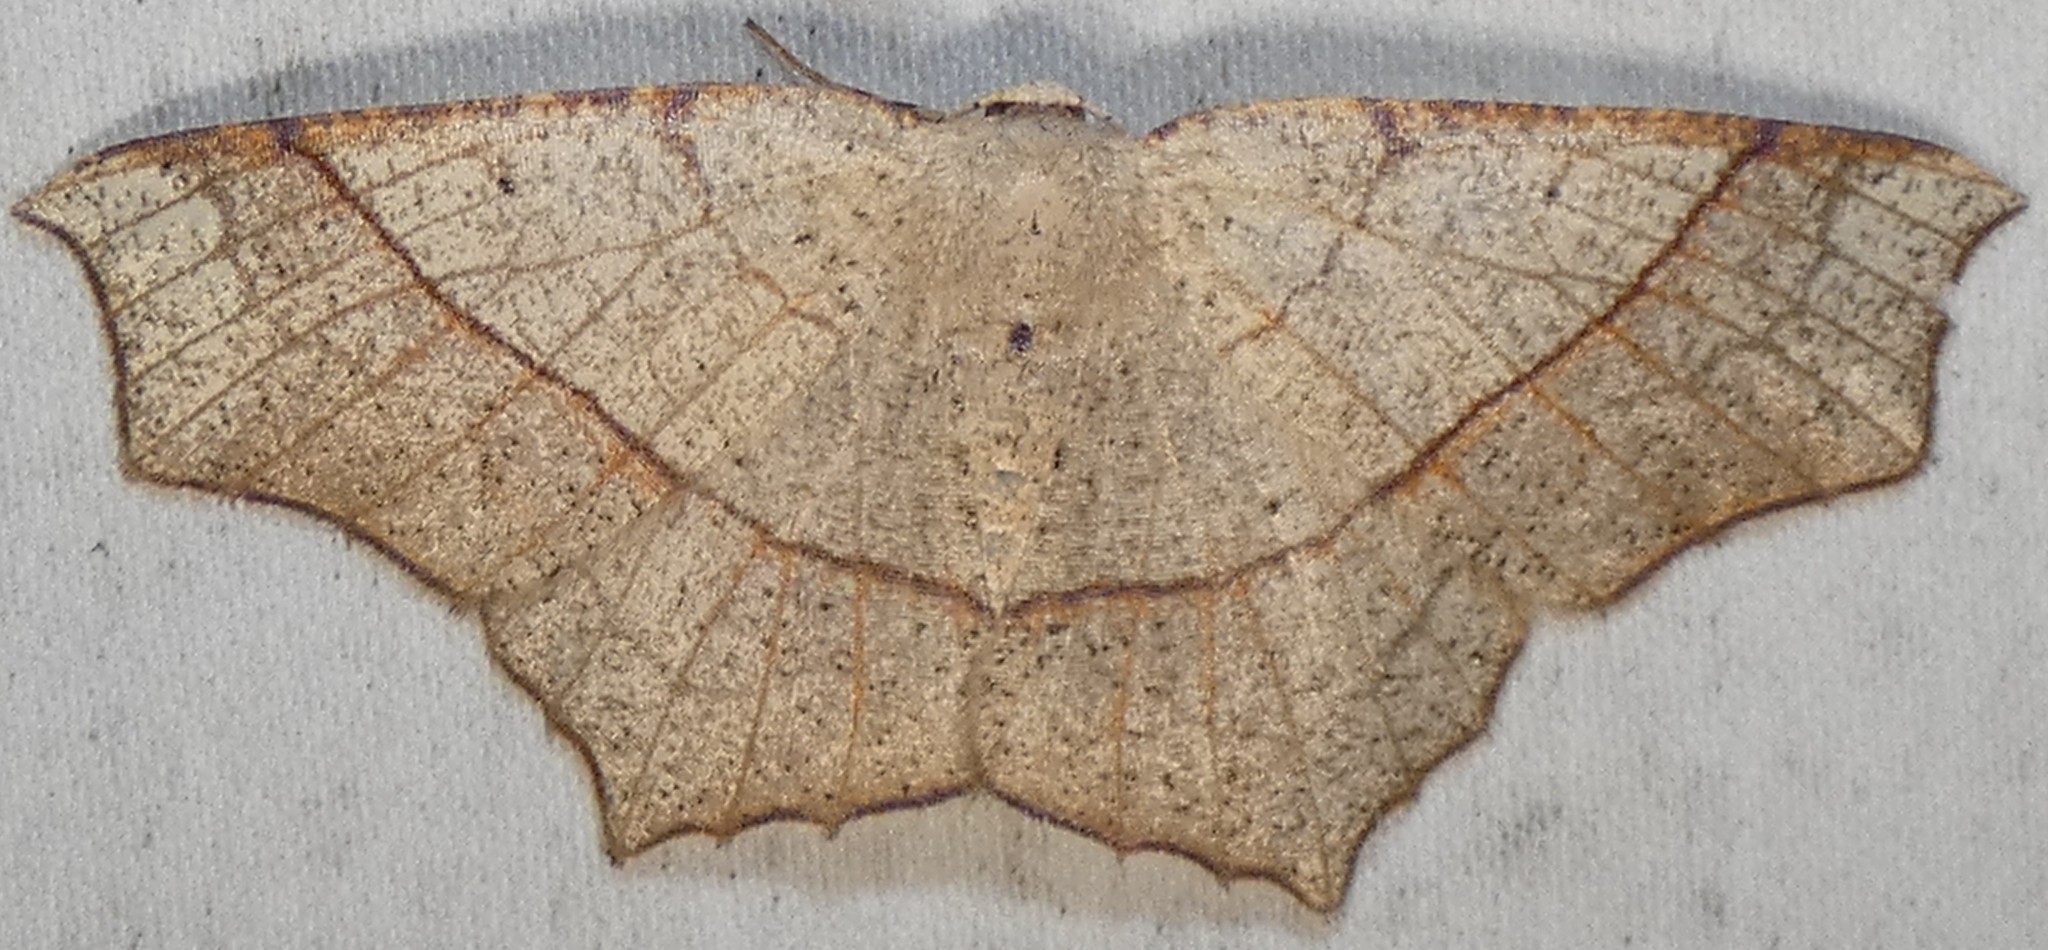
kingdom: Animalia
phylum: Arthropoda
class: Insecta
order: Lepidoptera
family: Geometridae
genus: Besma
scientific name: Besma quercivoraria
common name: Oak besma
